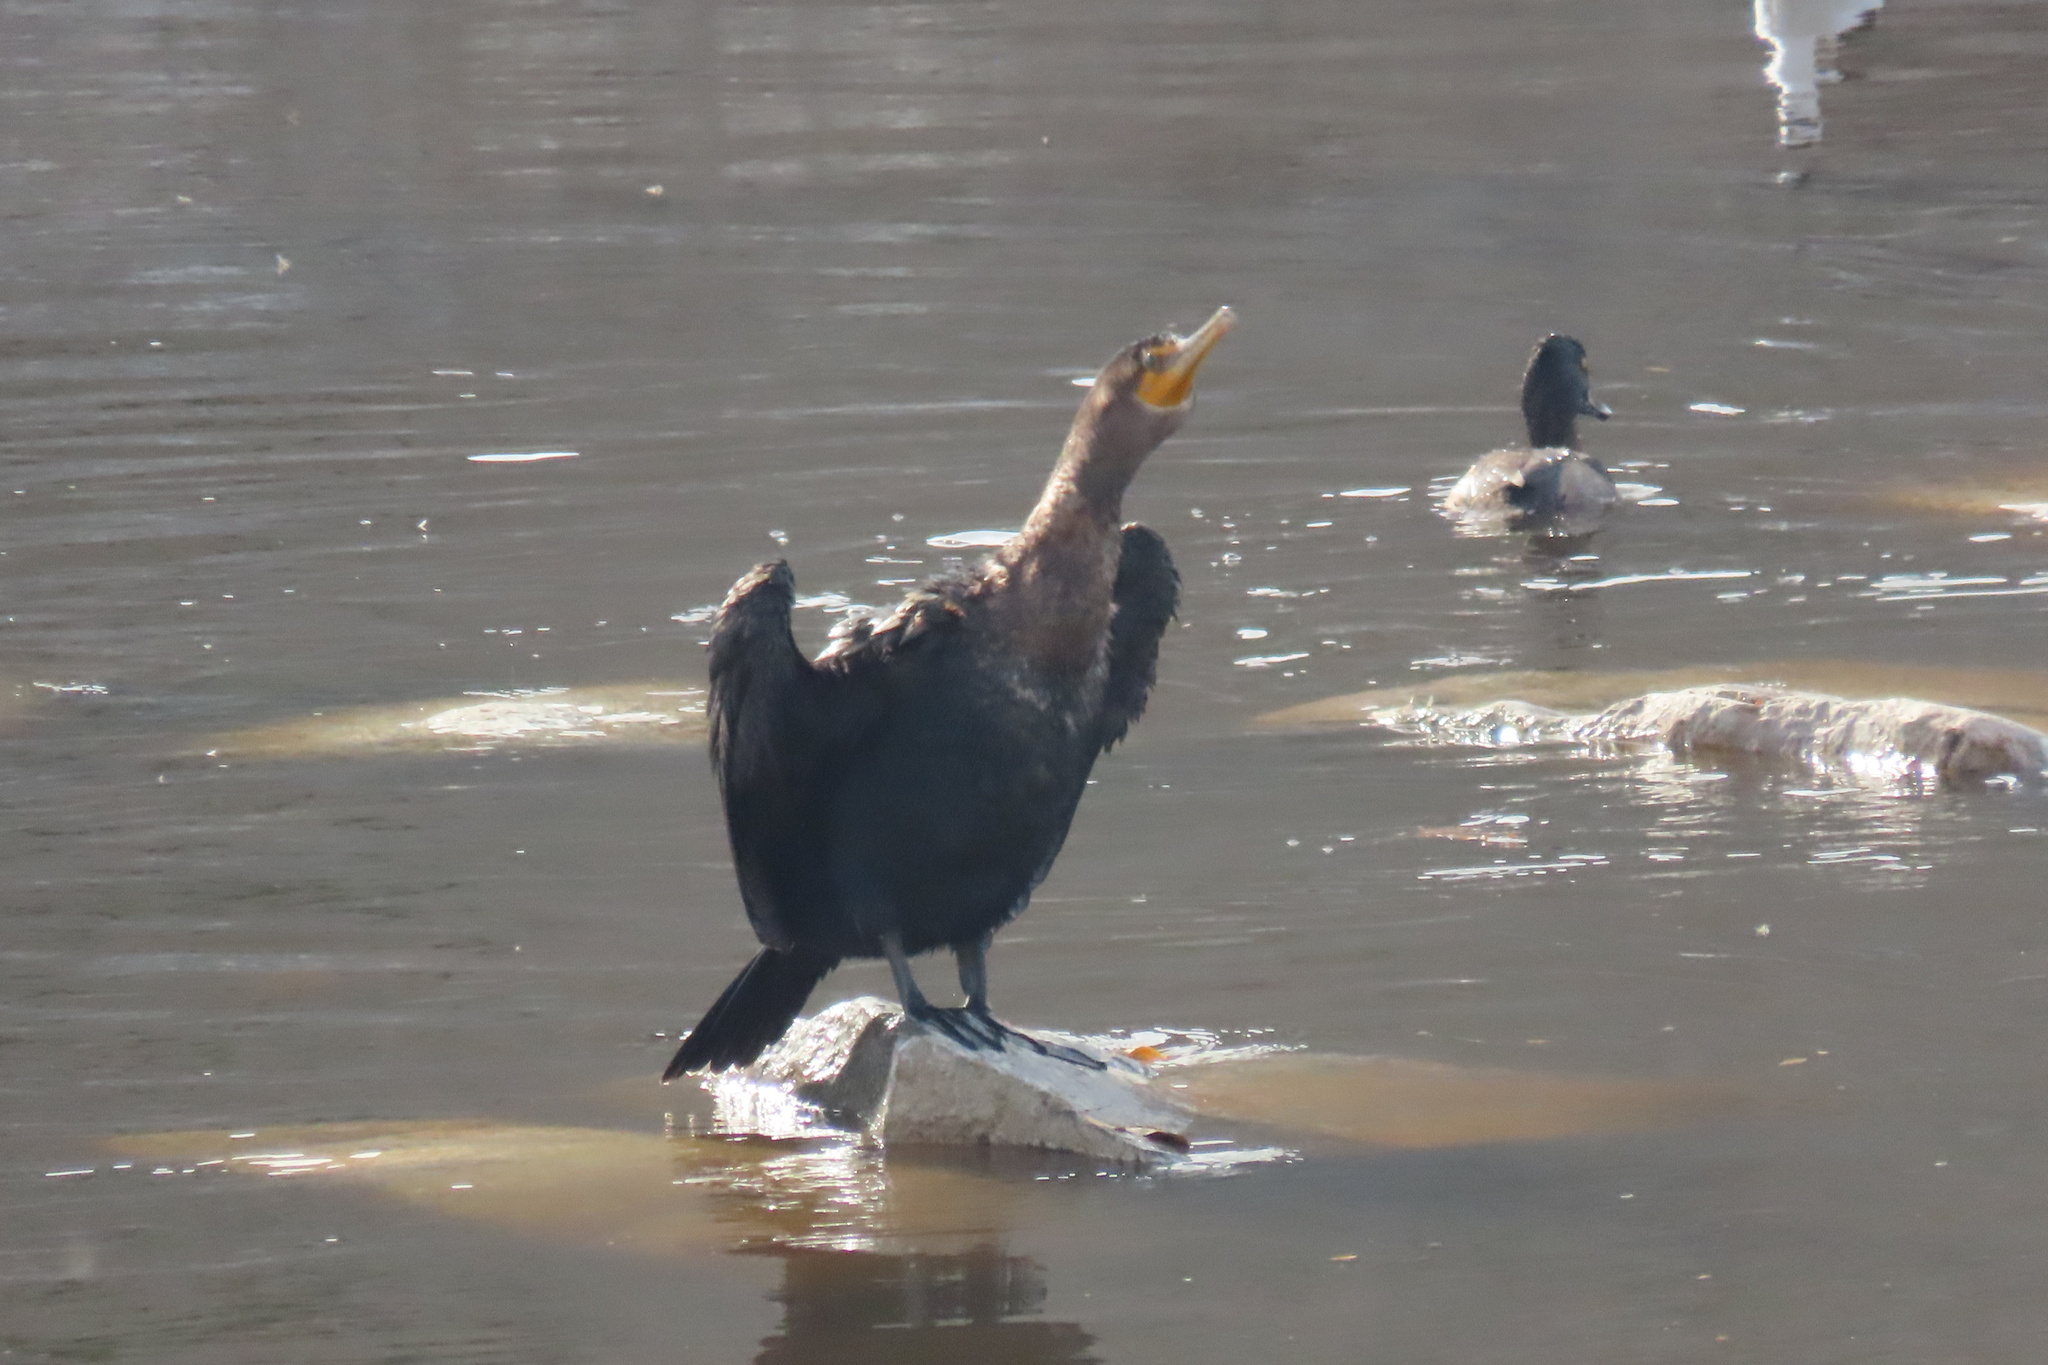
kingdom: Animalia
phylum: Chordata
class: Aves
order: Suliformes
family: Phalacrocoracidae
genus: Phalacrocorax
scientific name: Phalacrocorax auritus
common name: Double-crested cormorant
